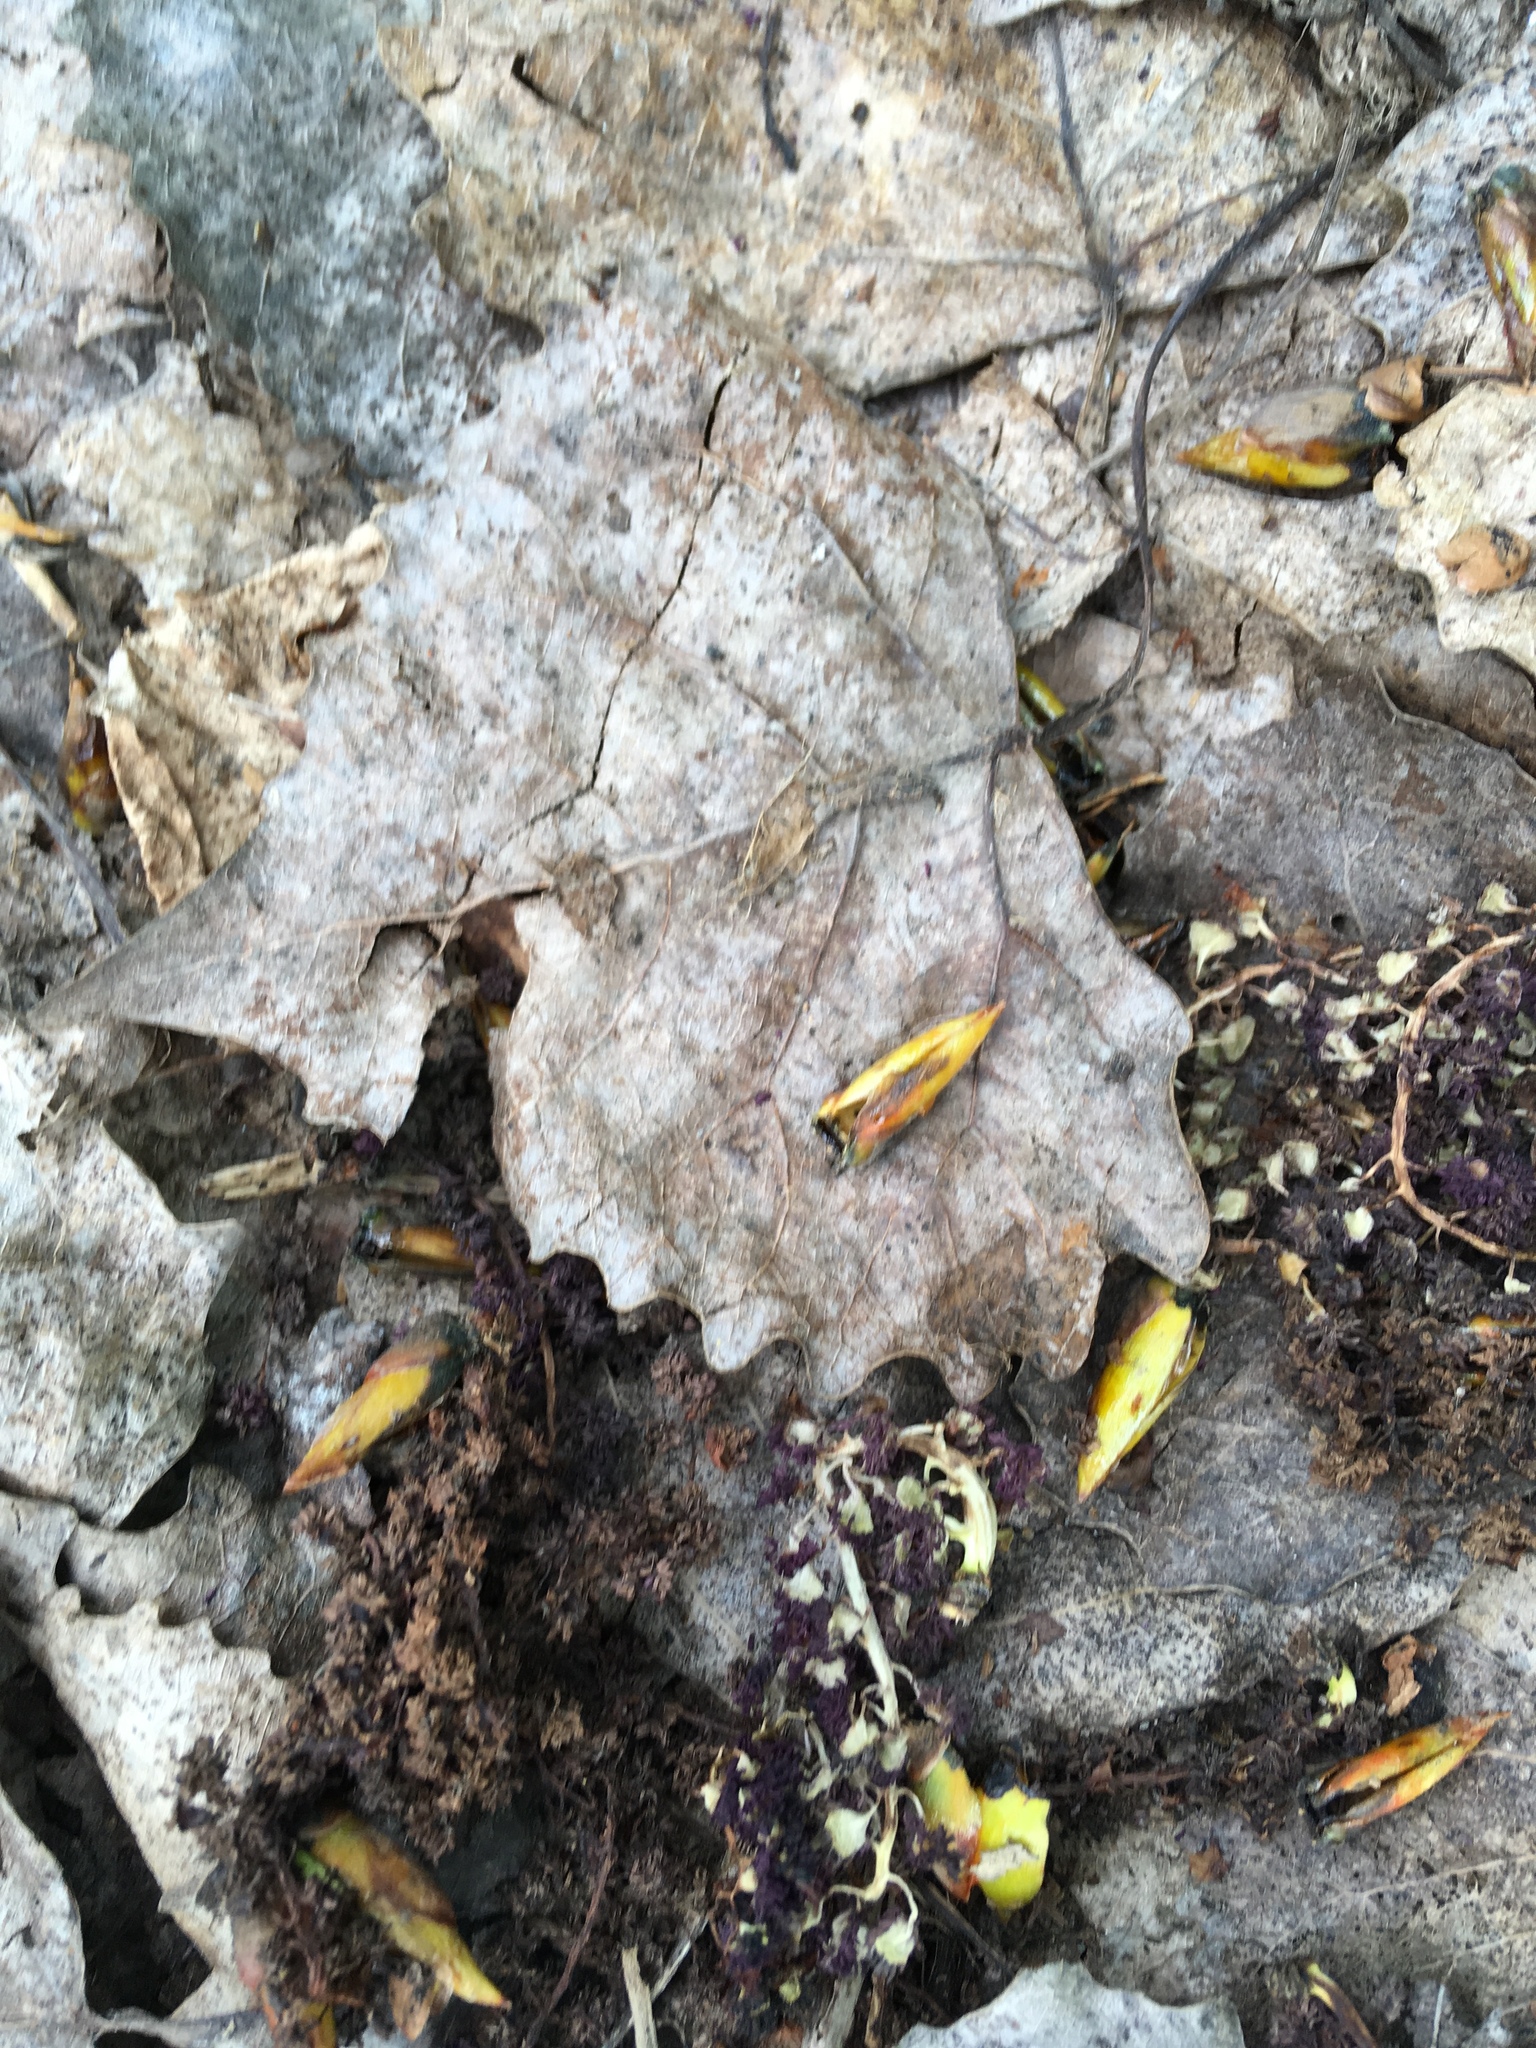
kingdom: Plantae
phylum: Tracheophyta
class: Magnoliopsida
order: Malpighiales
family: Salicaceae
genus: Populus
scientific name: Populus deltoides
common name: Eastern cottonwood
